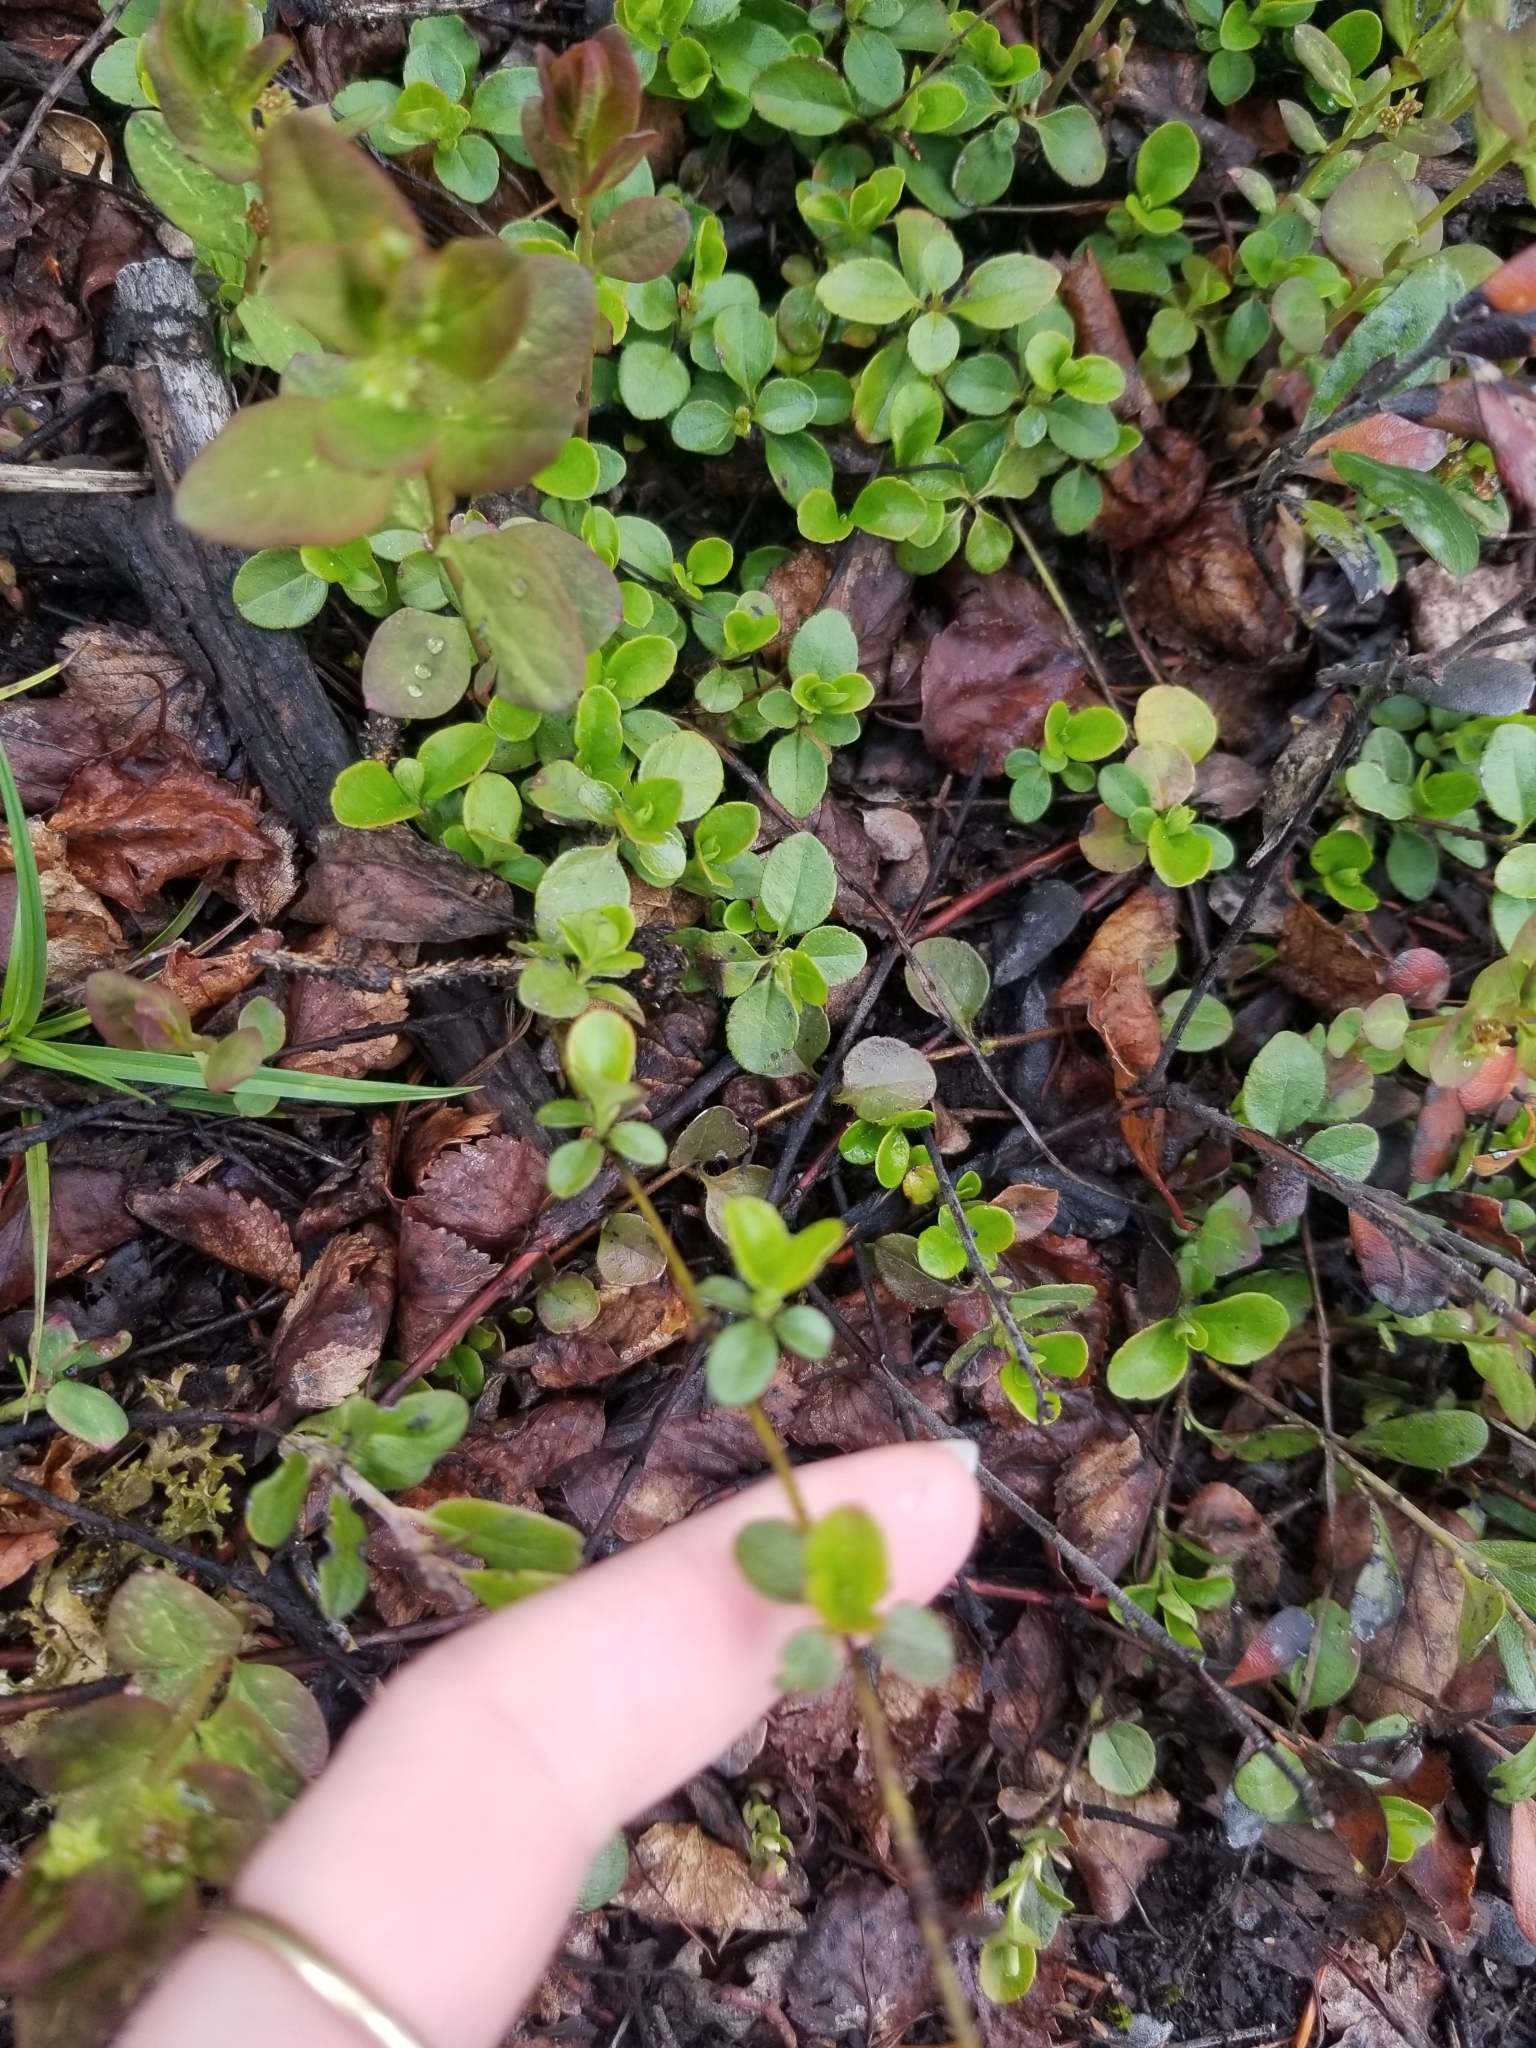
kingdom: Plantae
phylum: Tracheophyta
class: Magnoliopsida
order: Dipsacales
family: Caprifoliaceae
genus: Linnaea
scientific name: Linnaea borealis
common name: Twinflower
